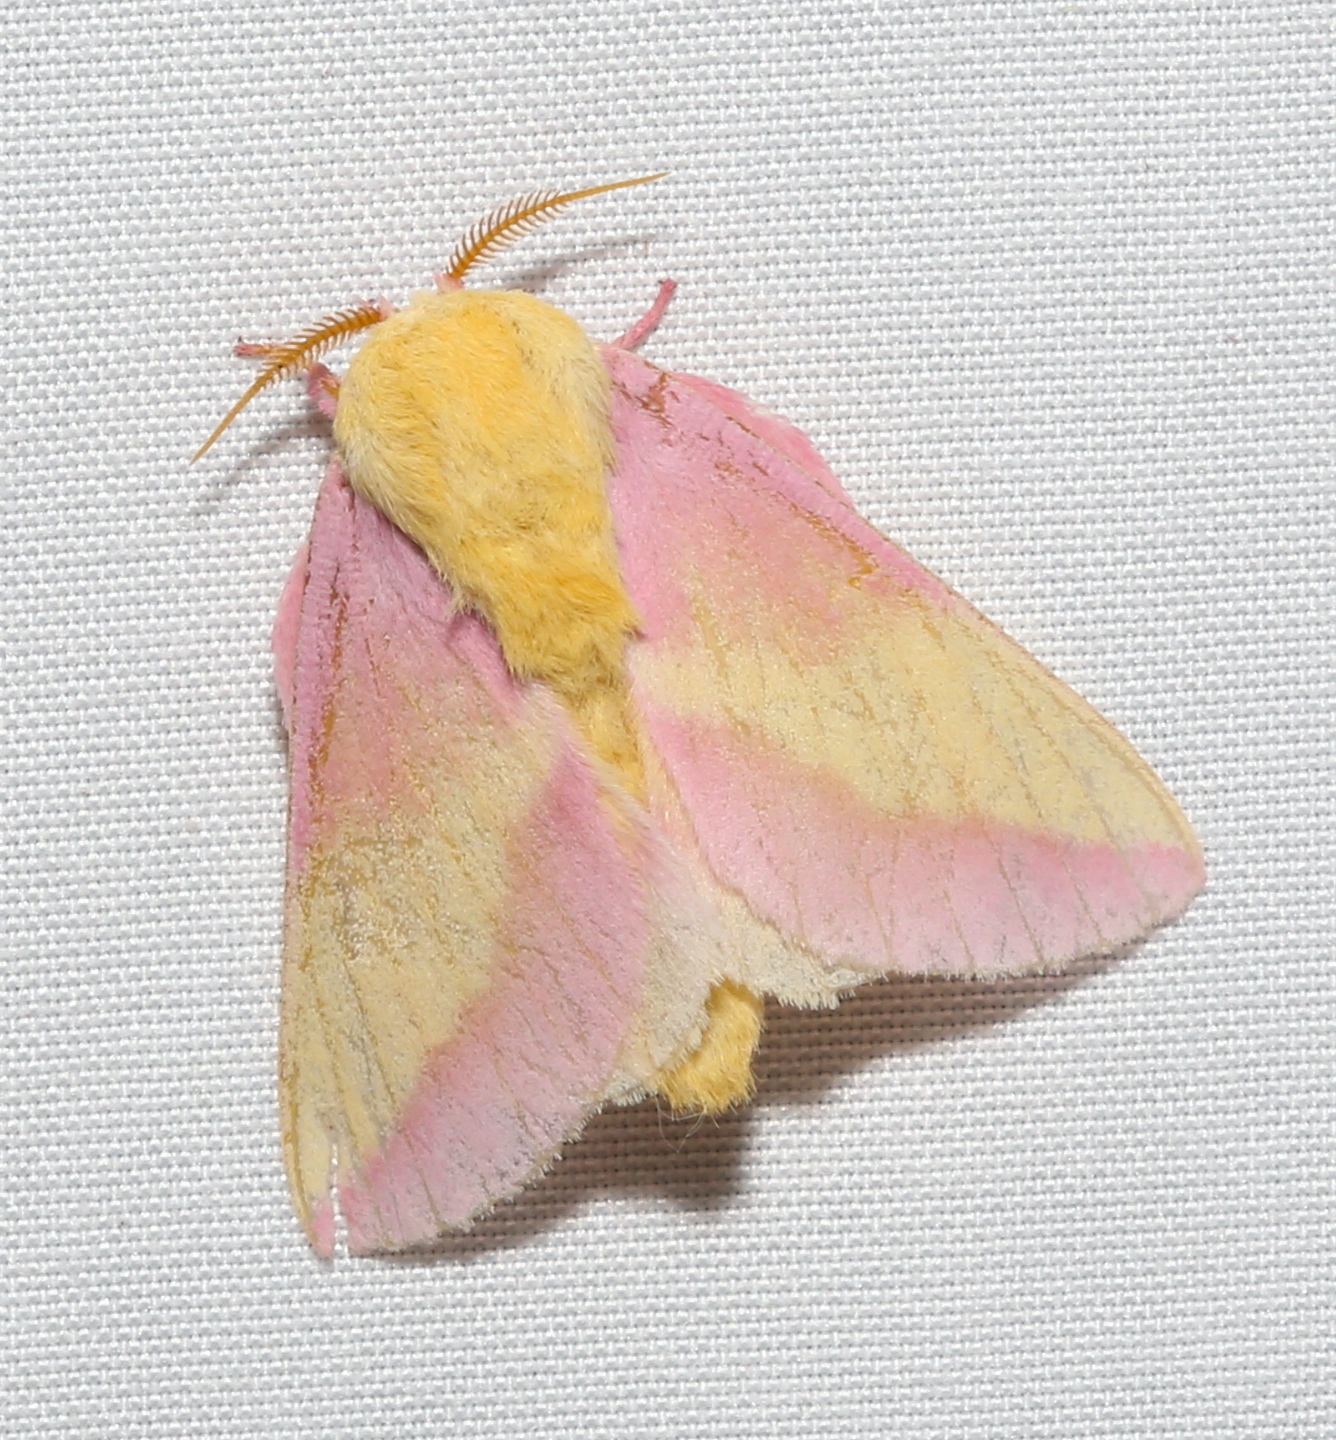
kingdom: Animalia
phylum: Arthropoda
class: Insecta
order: Lepidoptera
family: Saturniidae
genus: Dryocampa
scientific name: Dryocampa rubicunda
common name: Rosy maple moth
